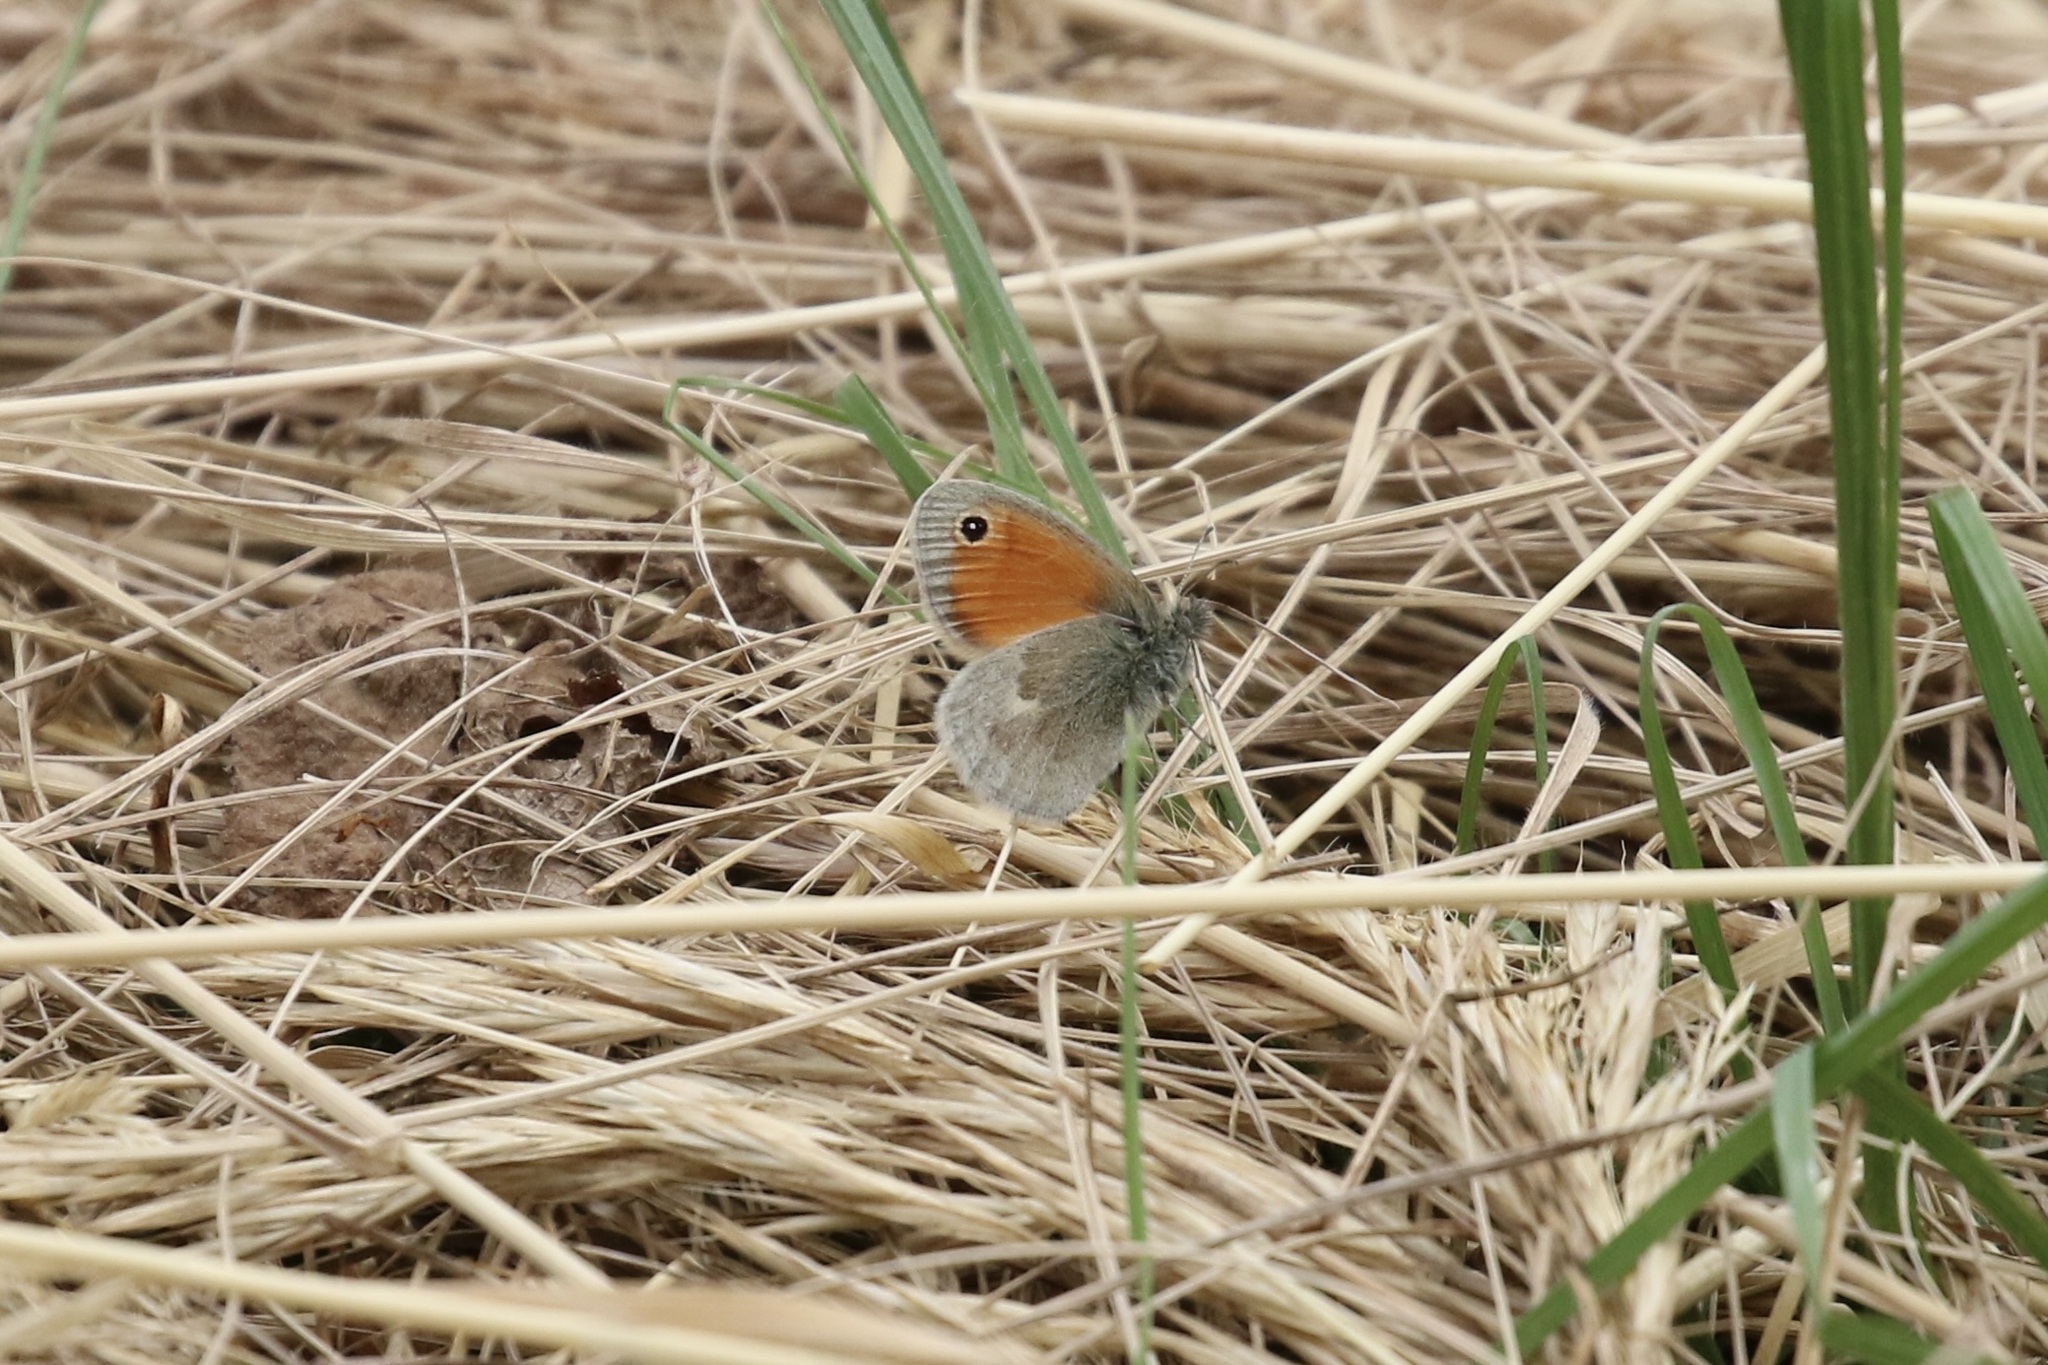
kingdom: Animalia
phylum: Arthropoda
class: Insecta
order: Lepidoptera
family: Nymphalidae
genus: Coenonympha
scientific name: Coenonympha pamphilus
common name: Small heath
